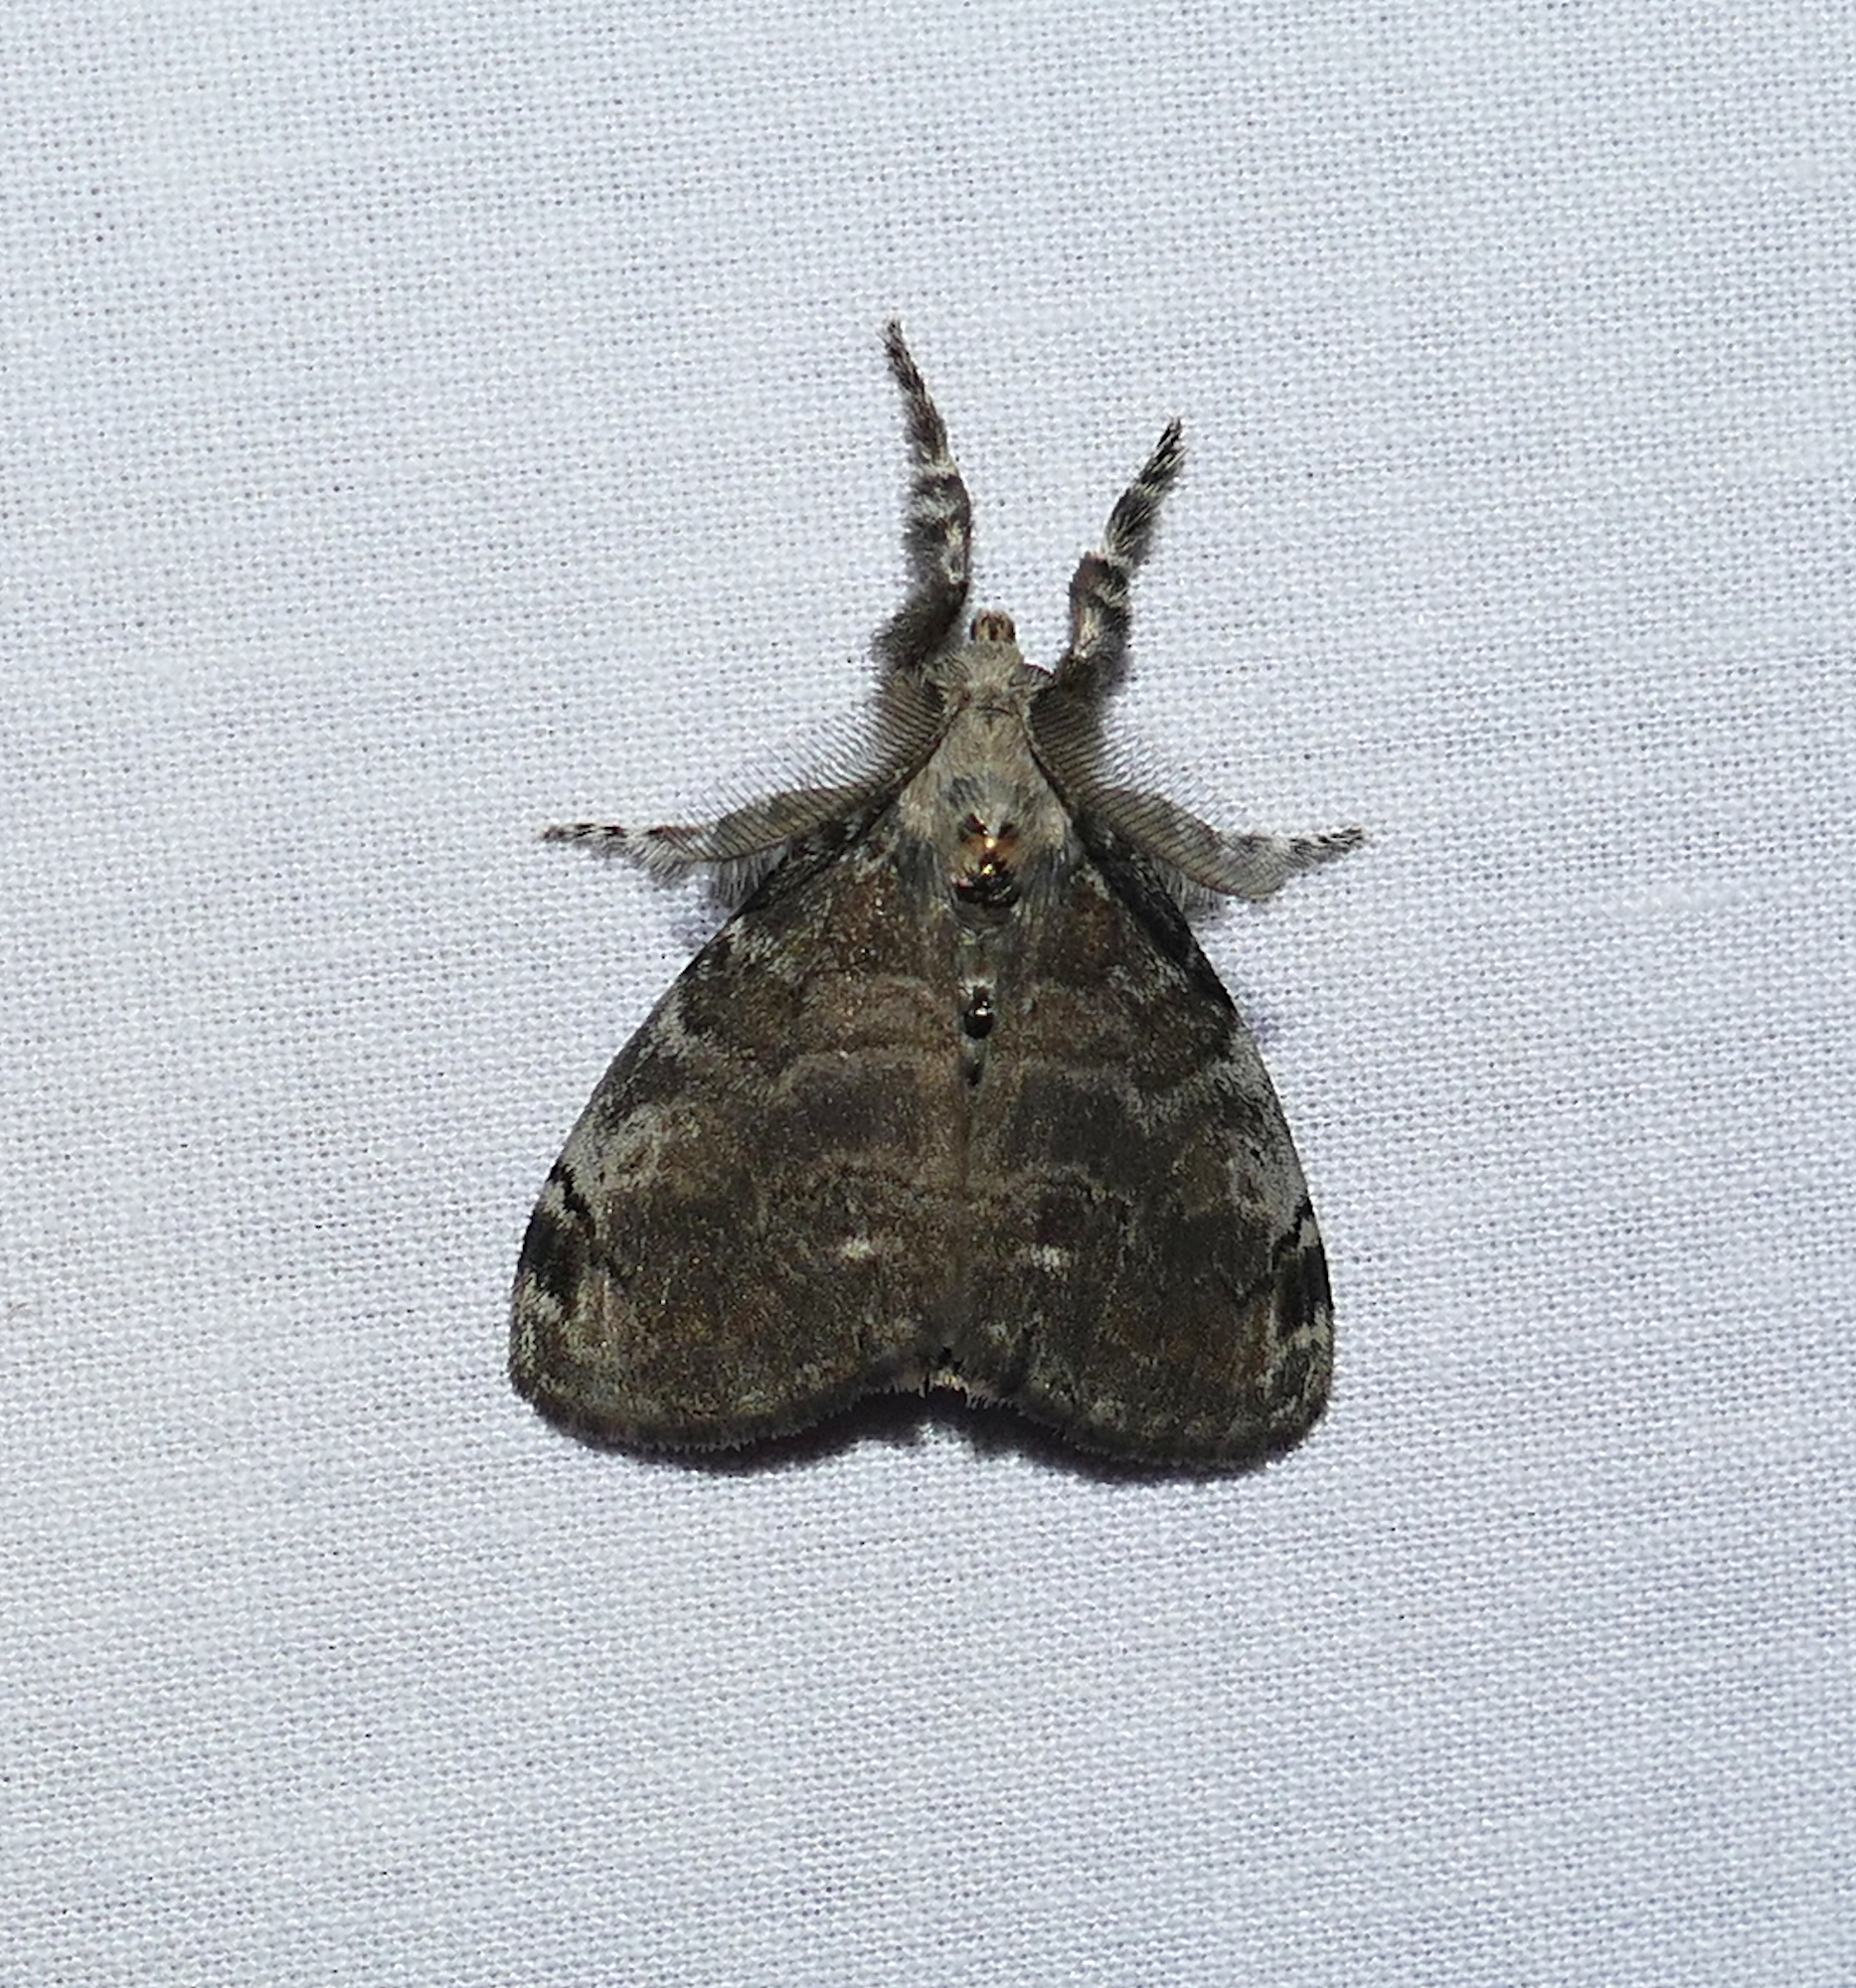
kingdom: Animalia
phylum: Arthropoda
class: Insecta
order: Lepidoptera
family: Erebidae
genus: Orgyia
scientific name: Orgyia leucostigma
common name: White-marked tussock moth
